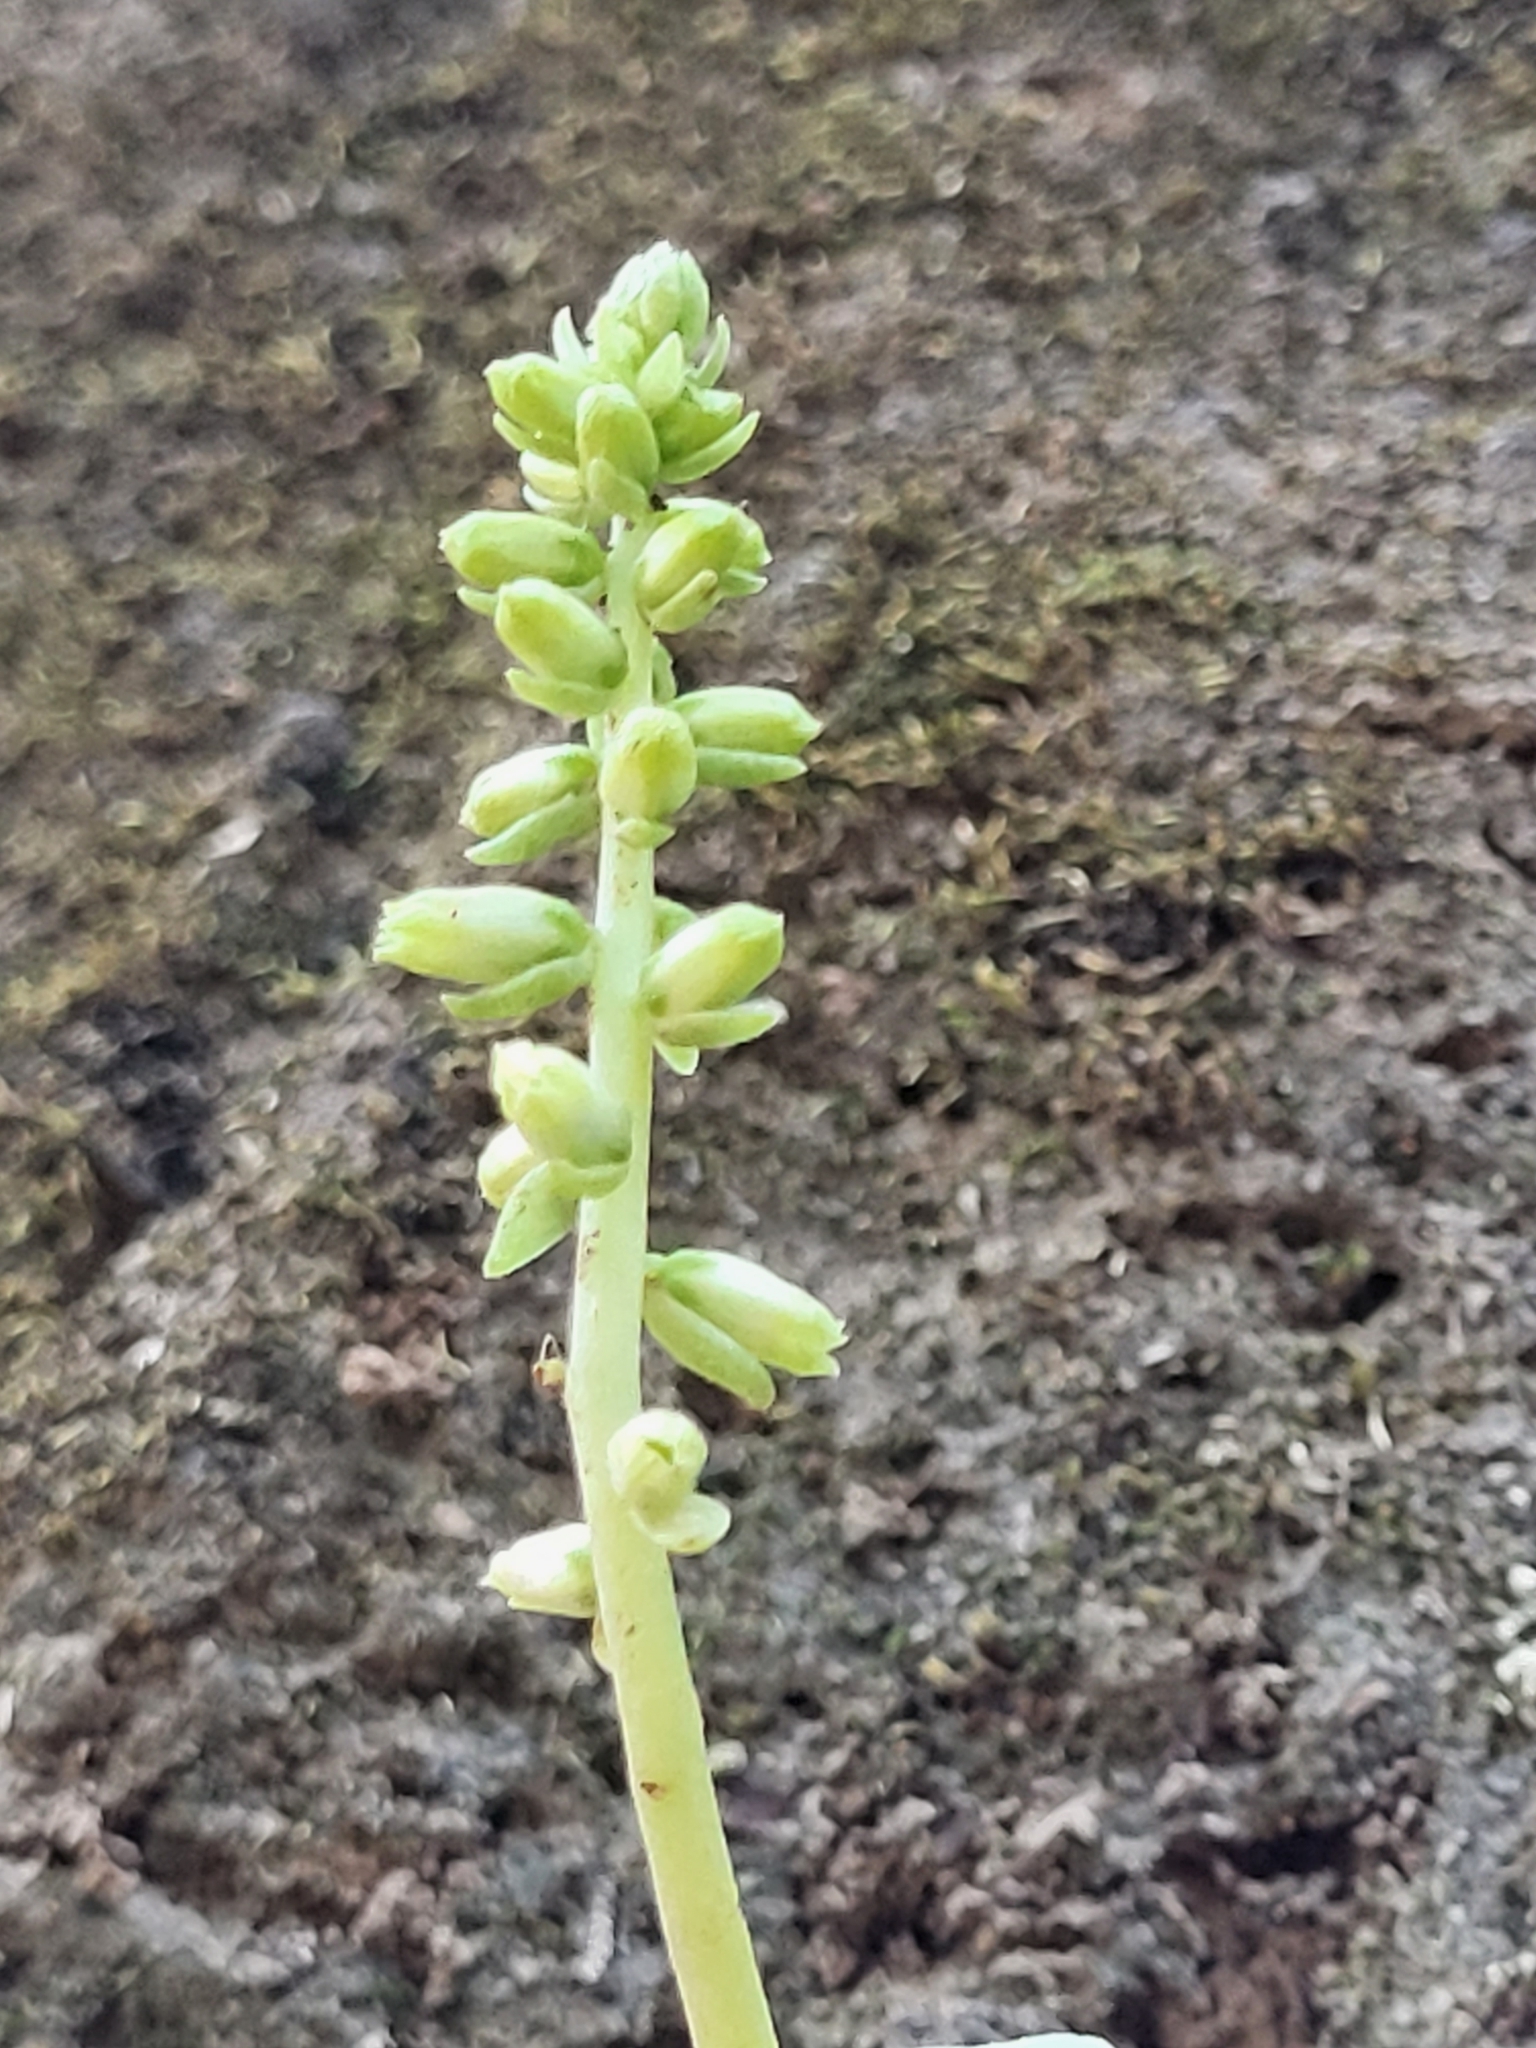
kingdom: Plantae
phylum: Tracheophyta
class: Magnoliopsida
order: Saxifragales
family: Crassulaceae
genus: Umbilicus
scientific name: Umbilicus schmidtii
